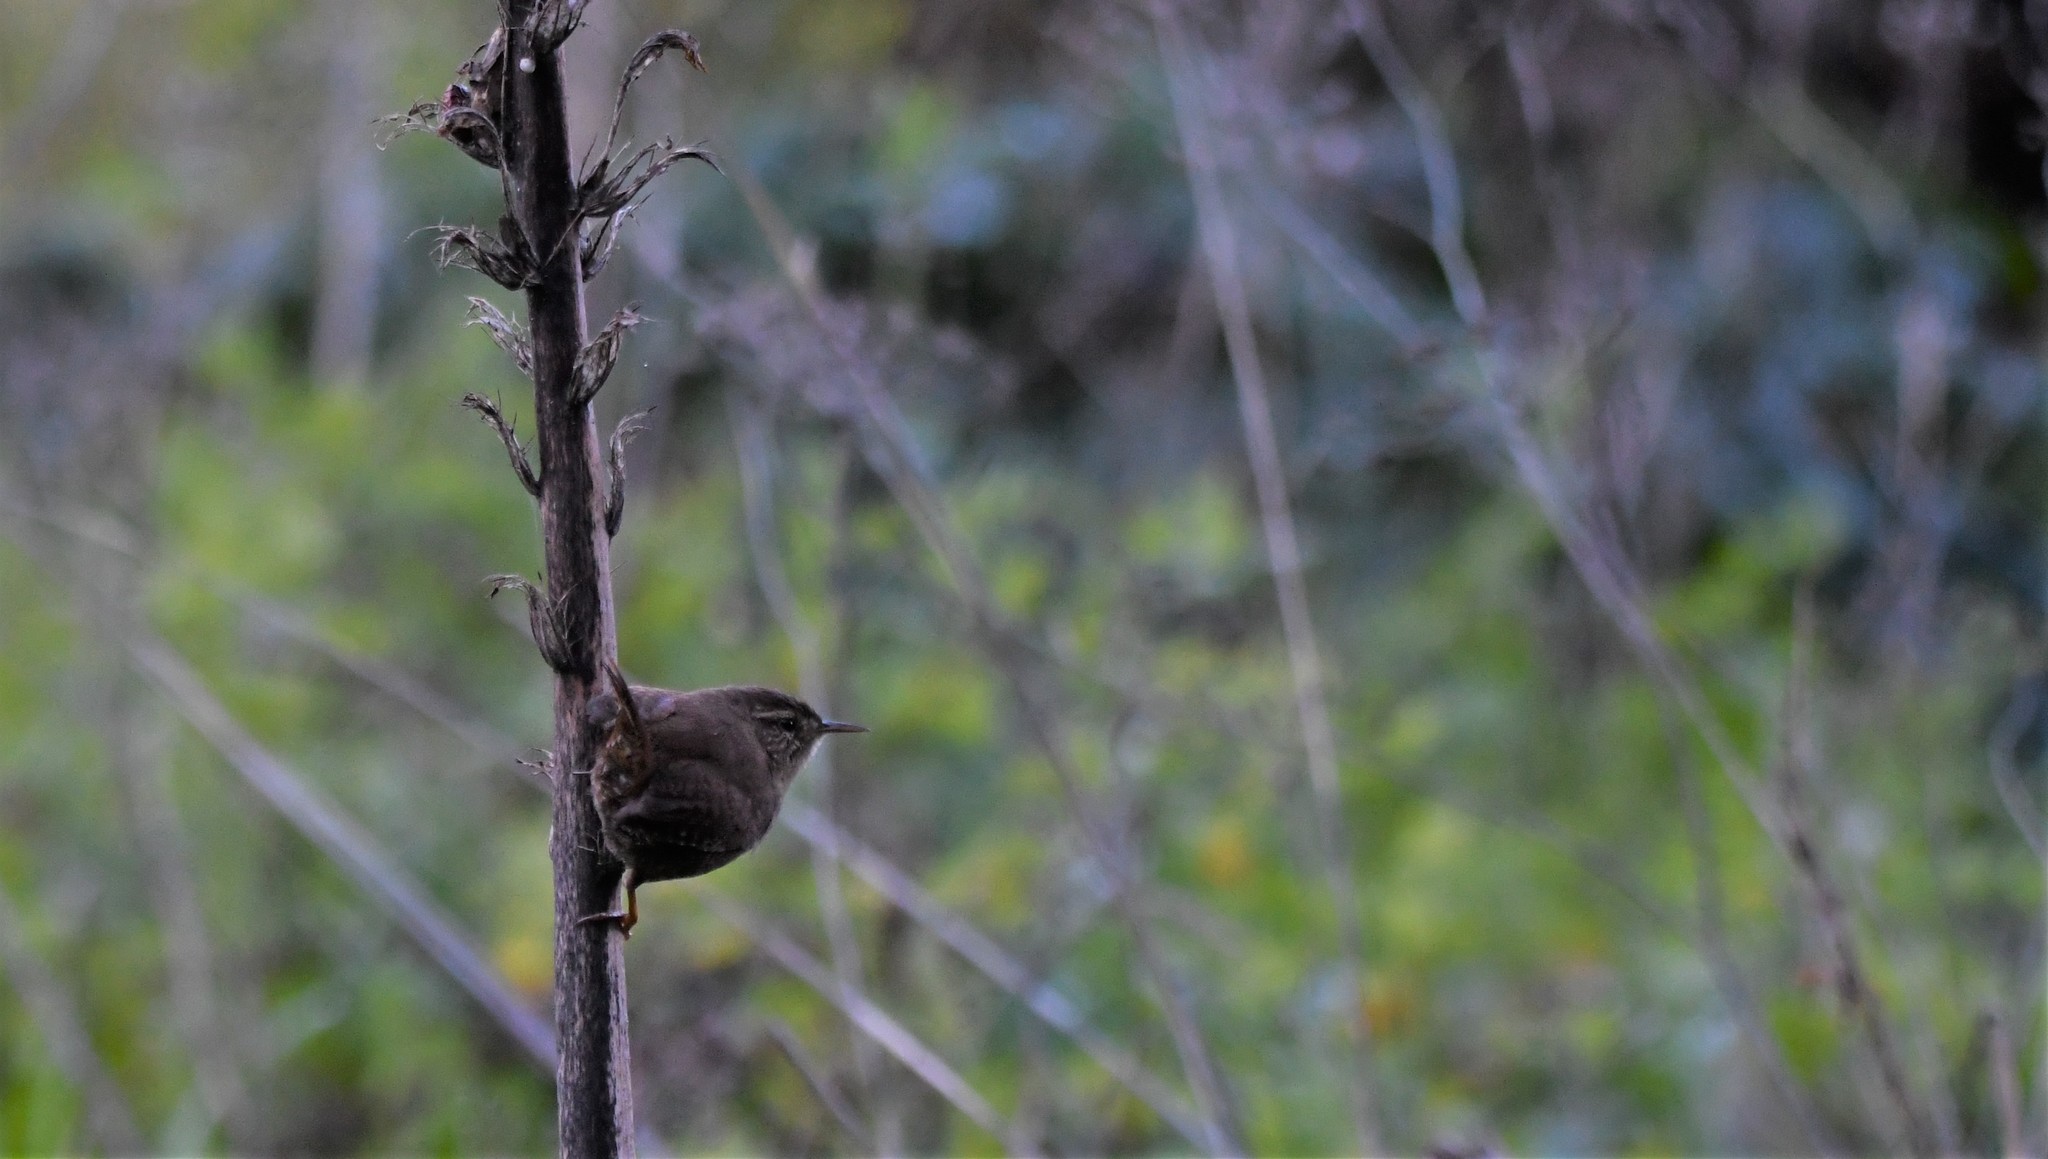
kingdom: Animalia
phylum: Chordata
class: Aves
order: Passeriformes
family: Troglodytidae
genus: Troglodytes
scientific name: Troglodytes troglodytes
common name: Eurasian wren
